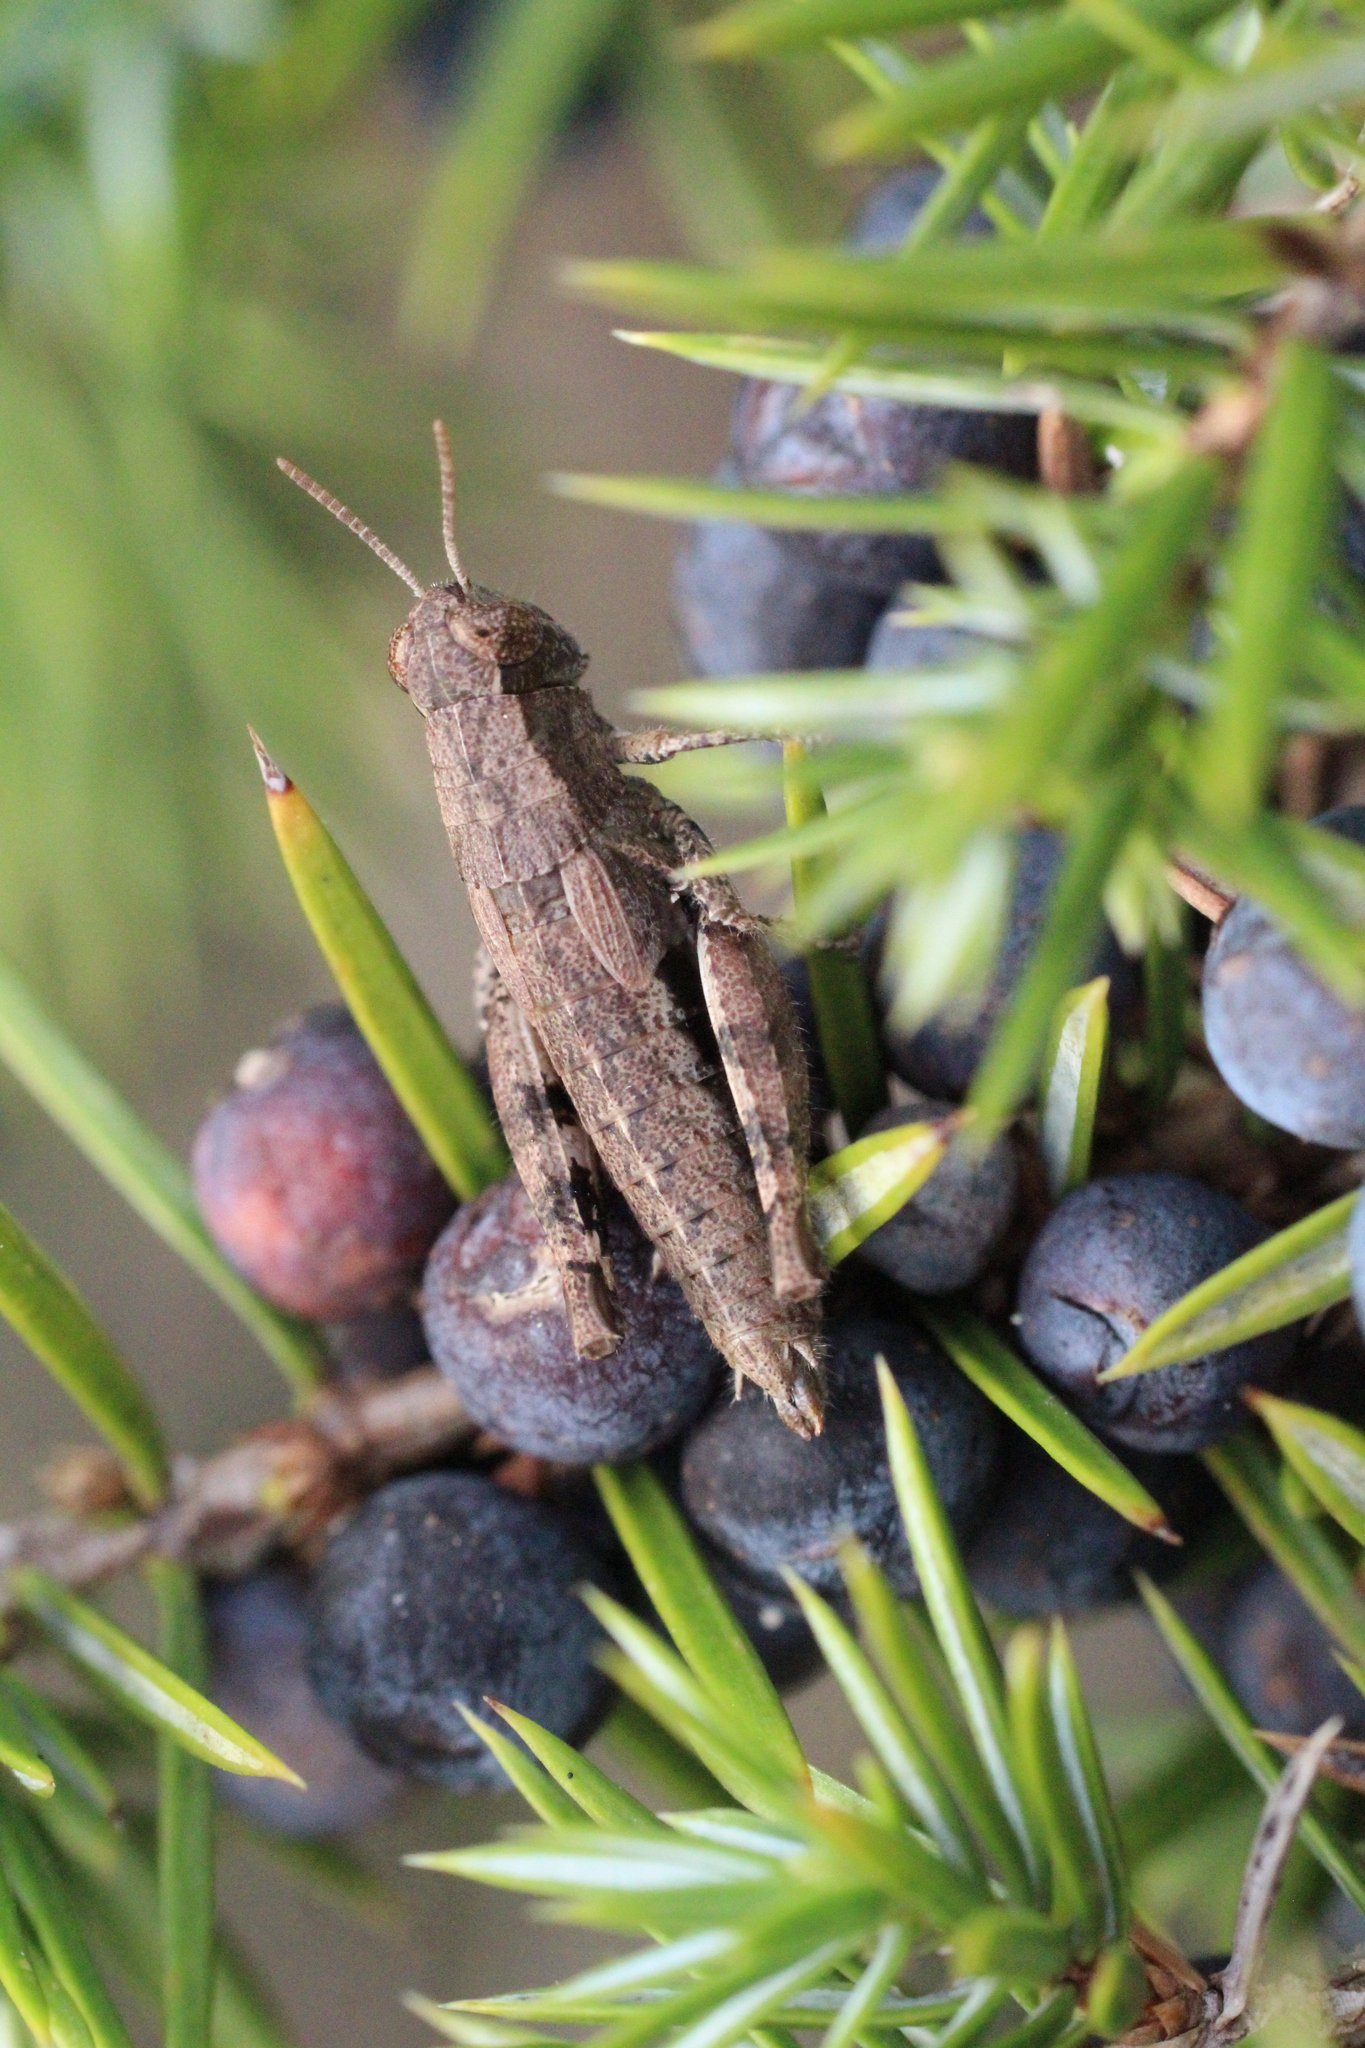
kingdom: Animalia
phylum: Arthropoda
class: Insecta
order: Orthoptera
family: Acrididae
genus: Pezotettix
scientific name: Pezotettix giornae
